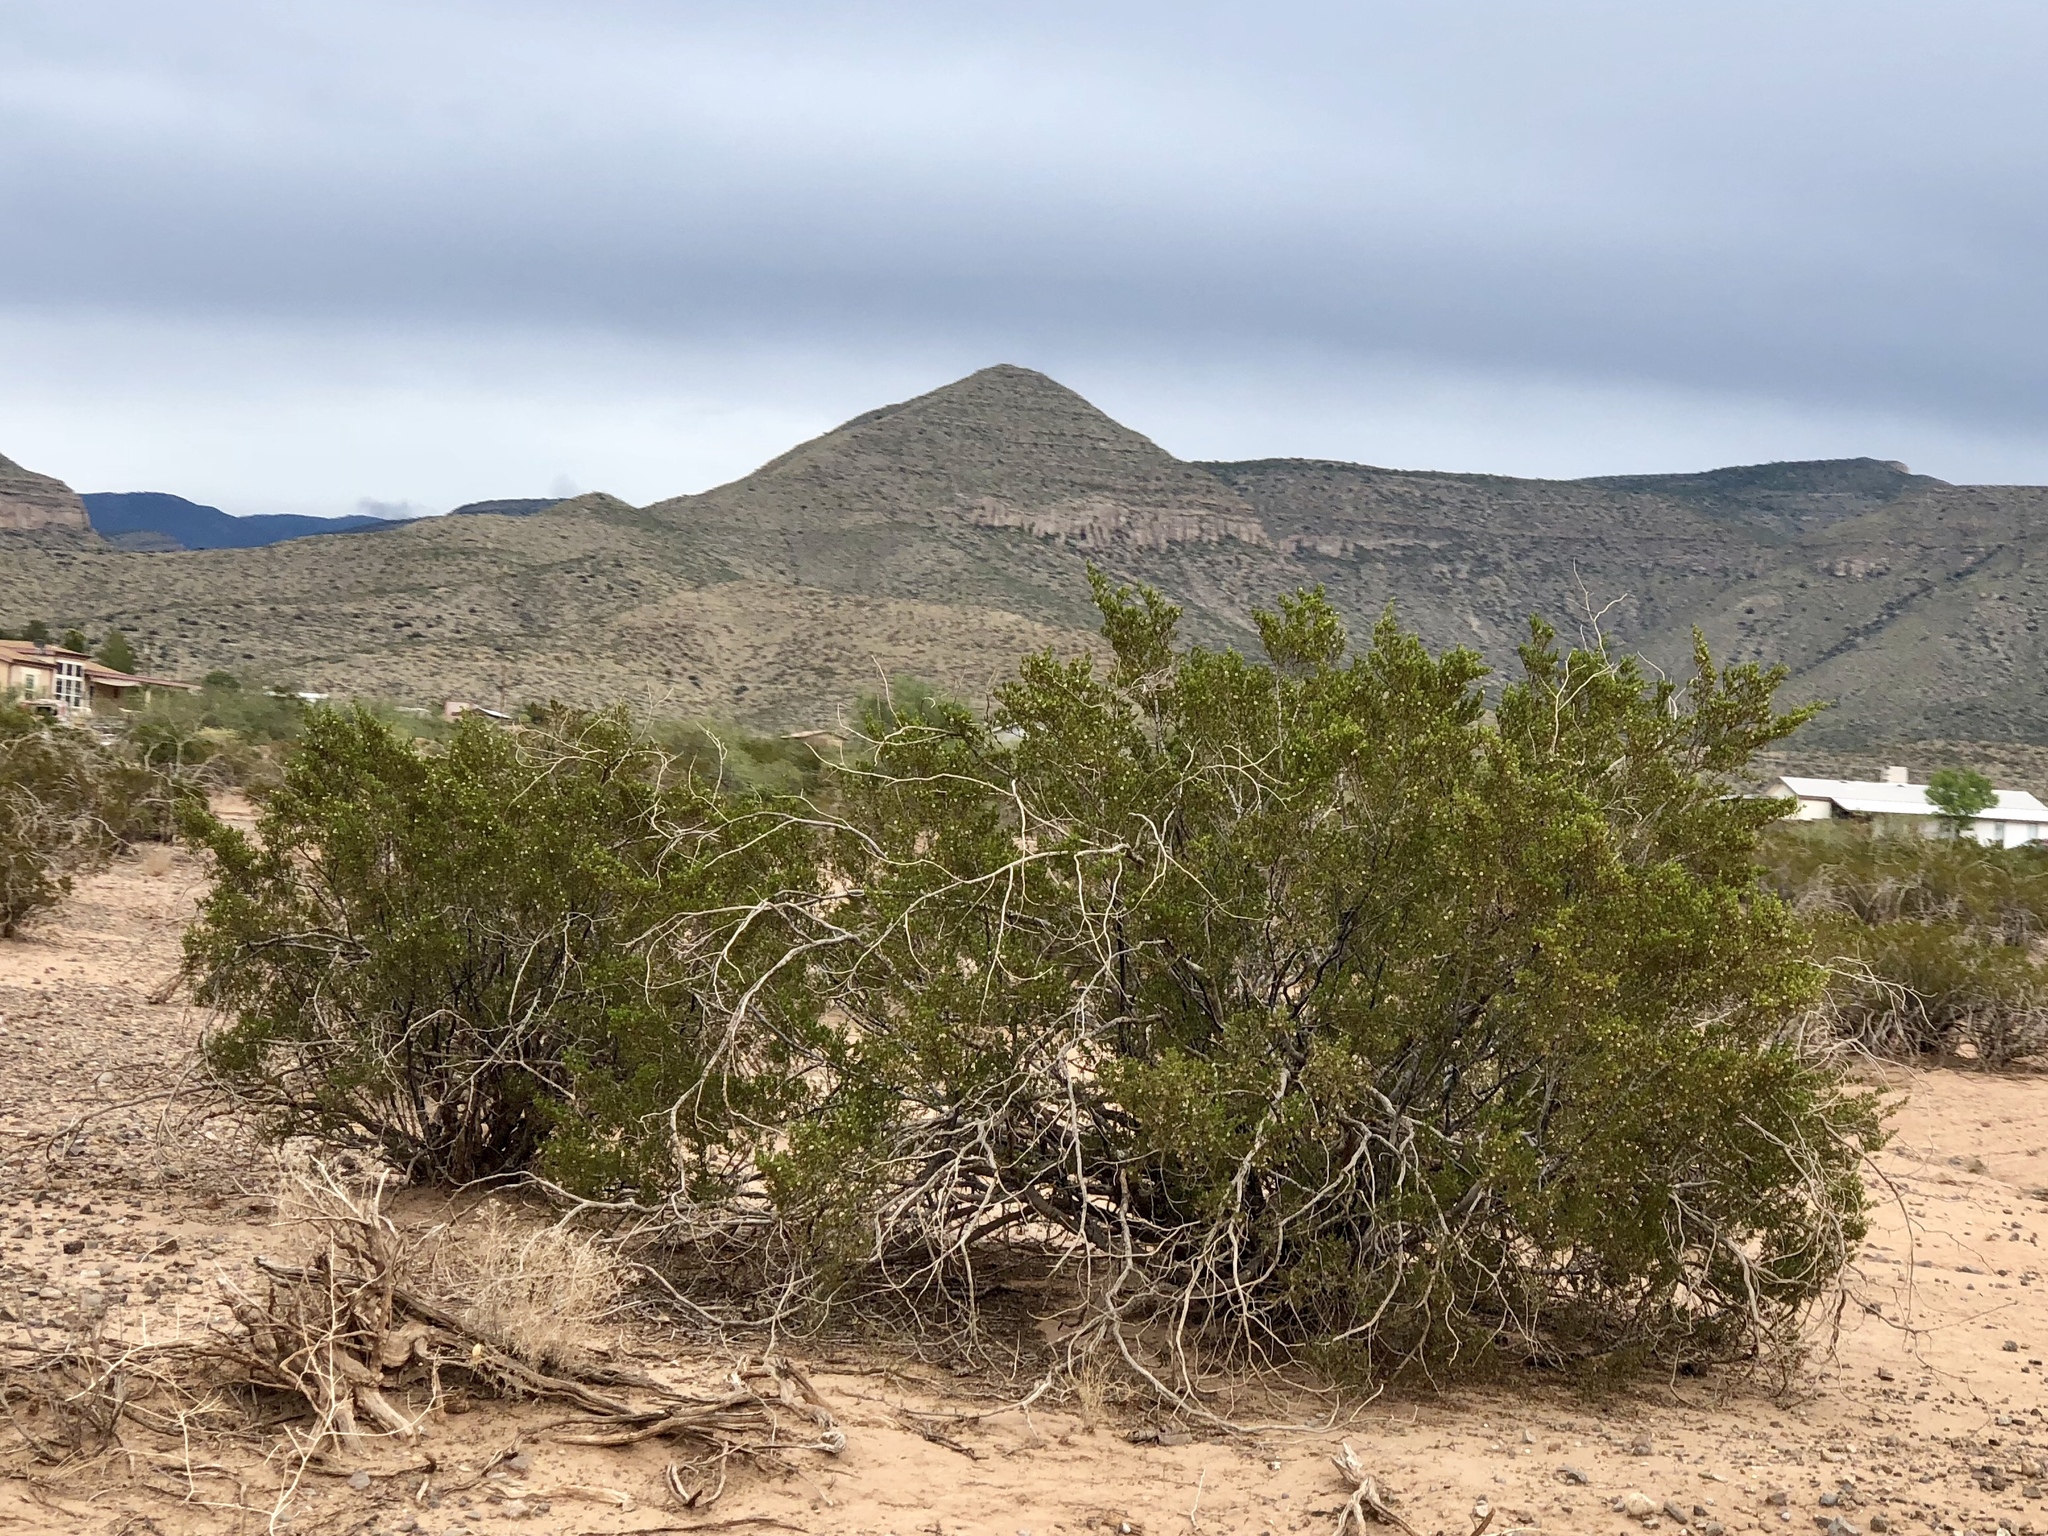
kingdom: Plantae
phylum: Tracheophyta
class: Magnoliopsida
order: Zygophyllales
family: Zygophyllaceae
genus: Larrea
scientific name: Larrea tridentata
